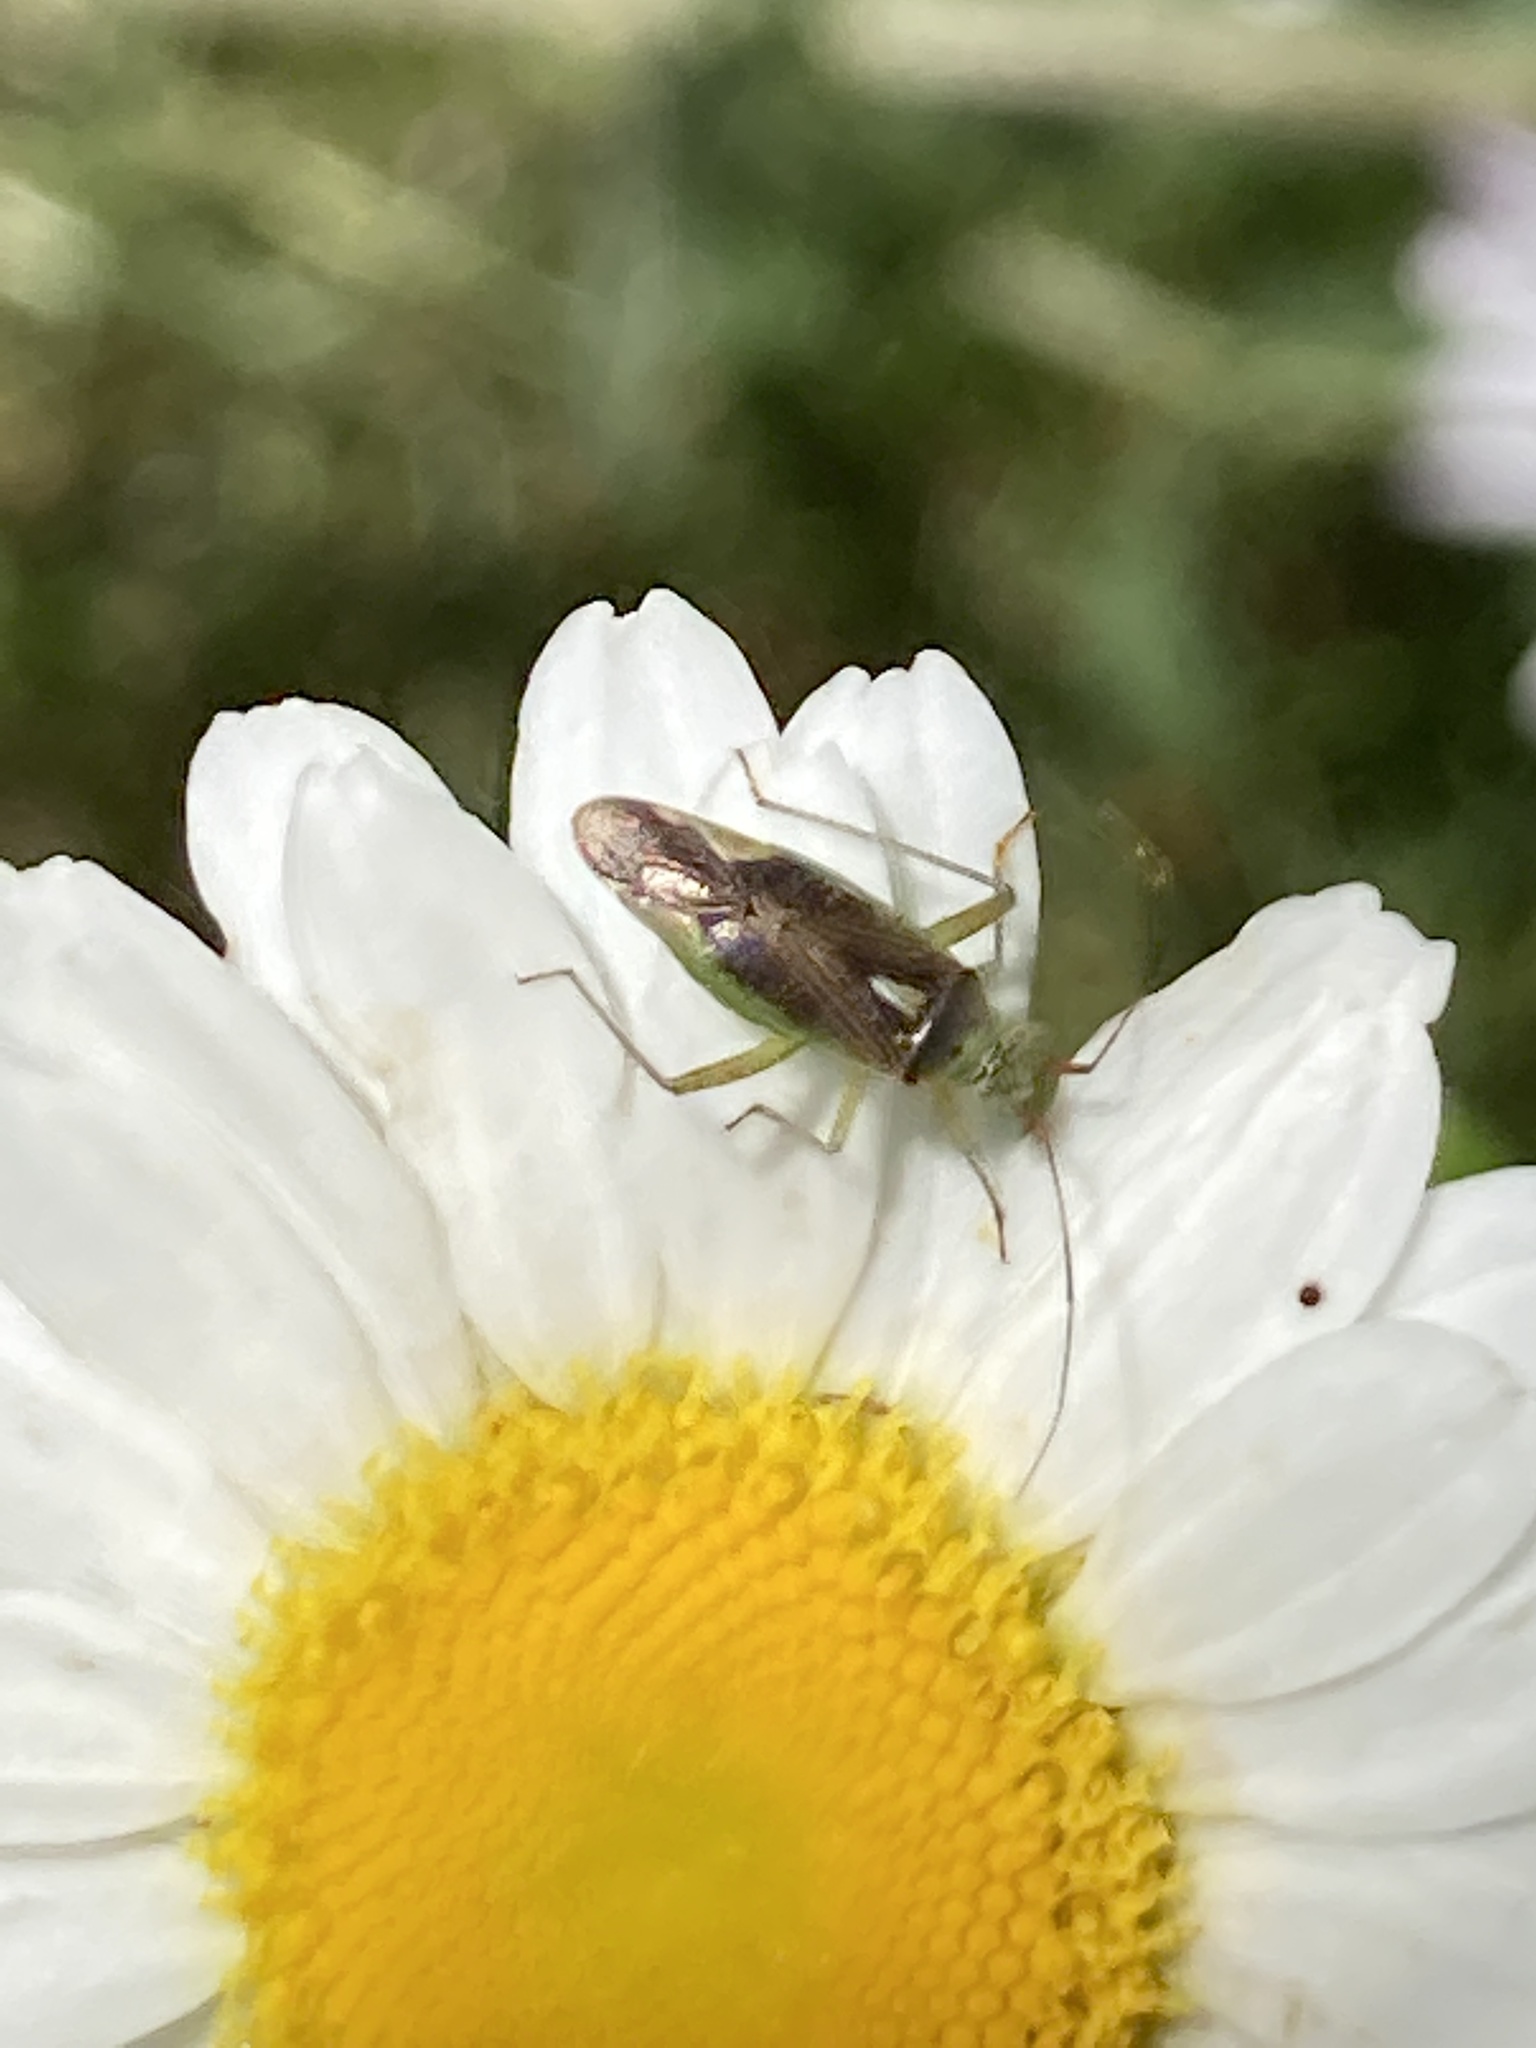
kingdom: Animalia
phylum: Arthropoda
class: Insecta
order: Hemiptera
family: Miridae
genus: Closterotomus
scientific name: Closterotomus trivialis
